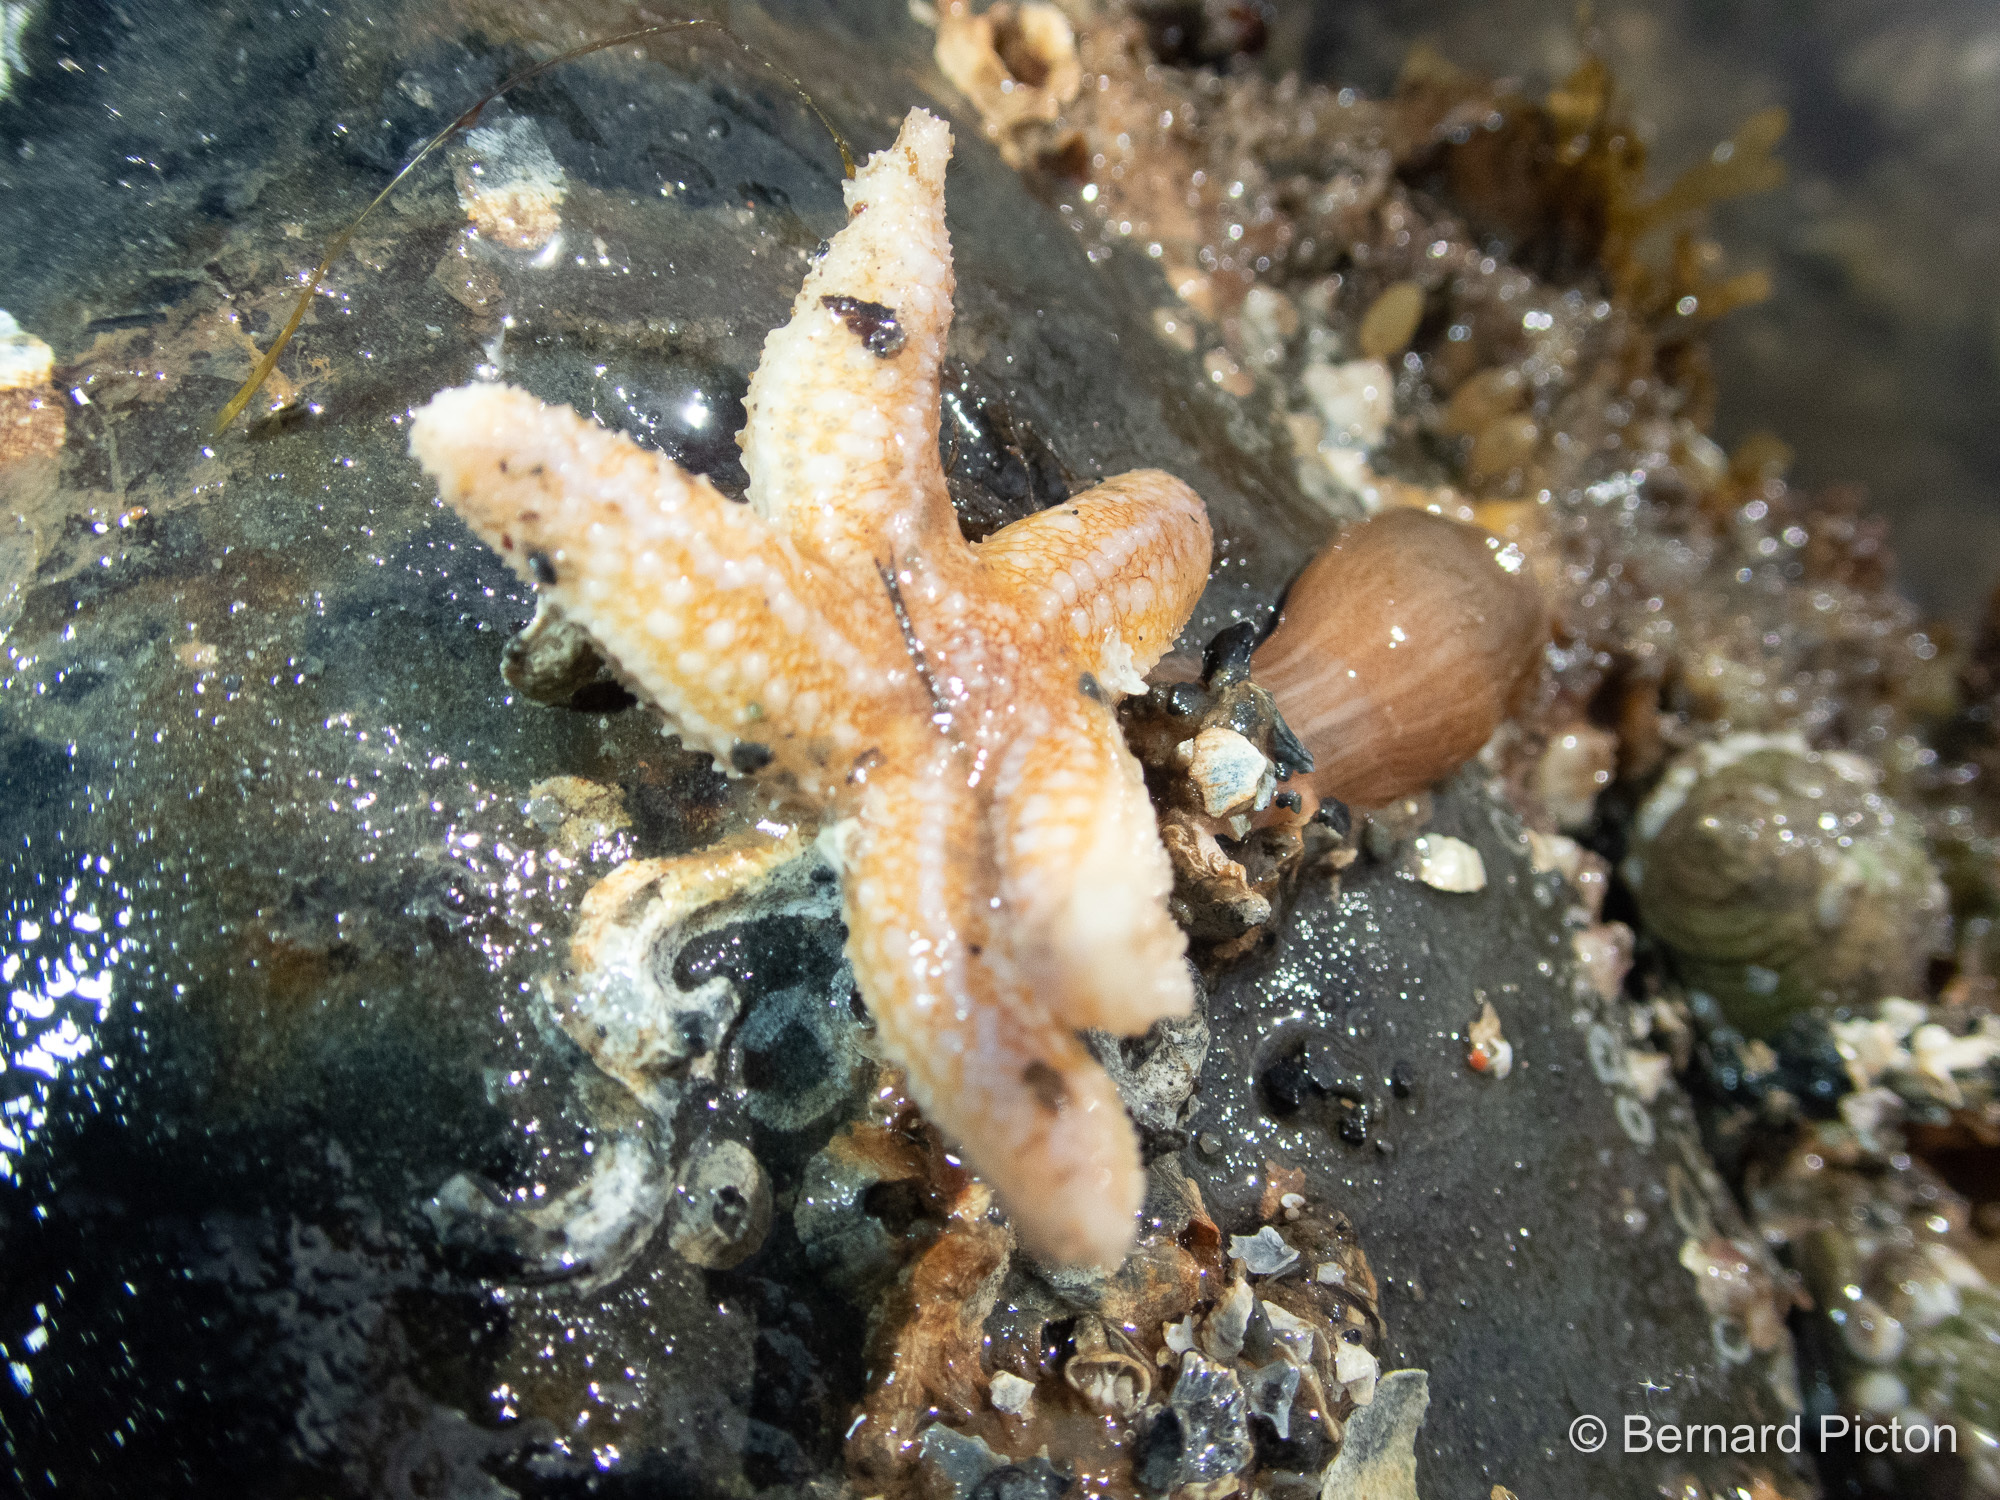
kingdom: Animalia
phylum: Echinodermata
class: Asteroidea
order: Forcipulatida
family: Asteriidae
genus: Asterias
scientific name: Asterias rubens
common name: Common starfish
